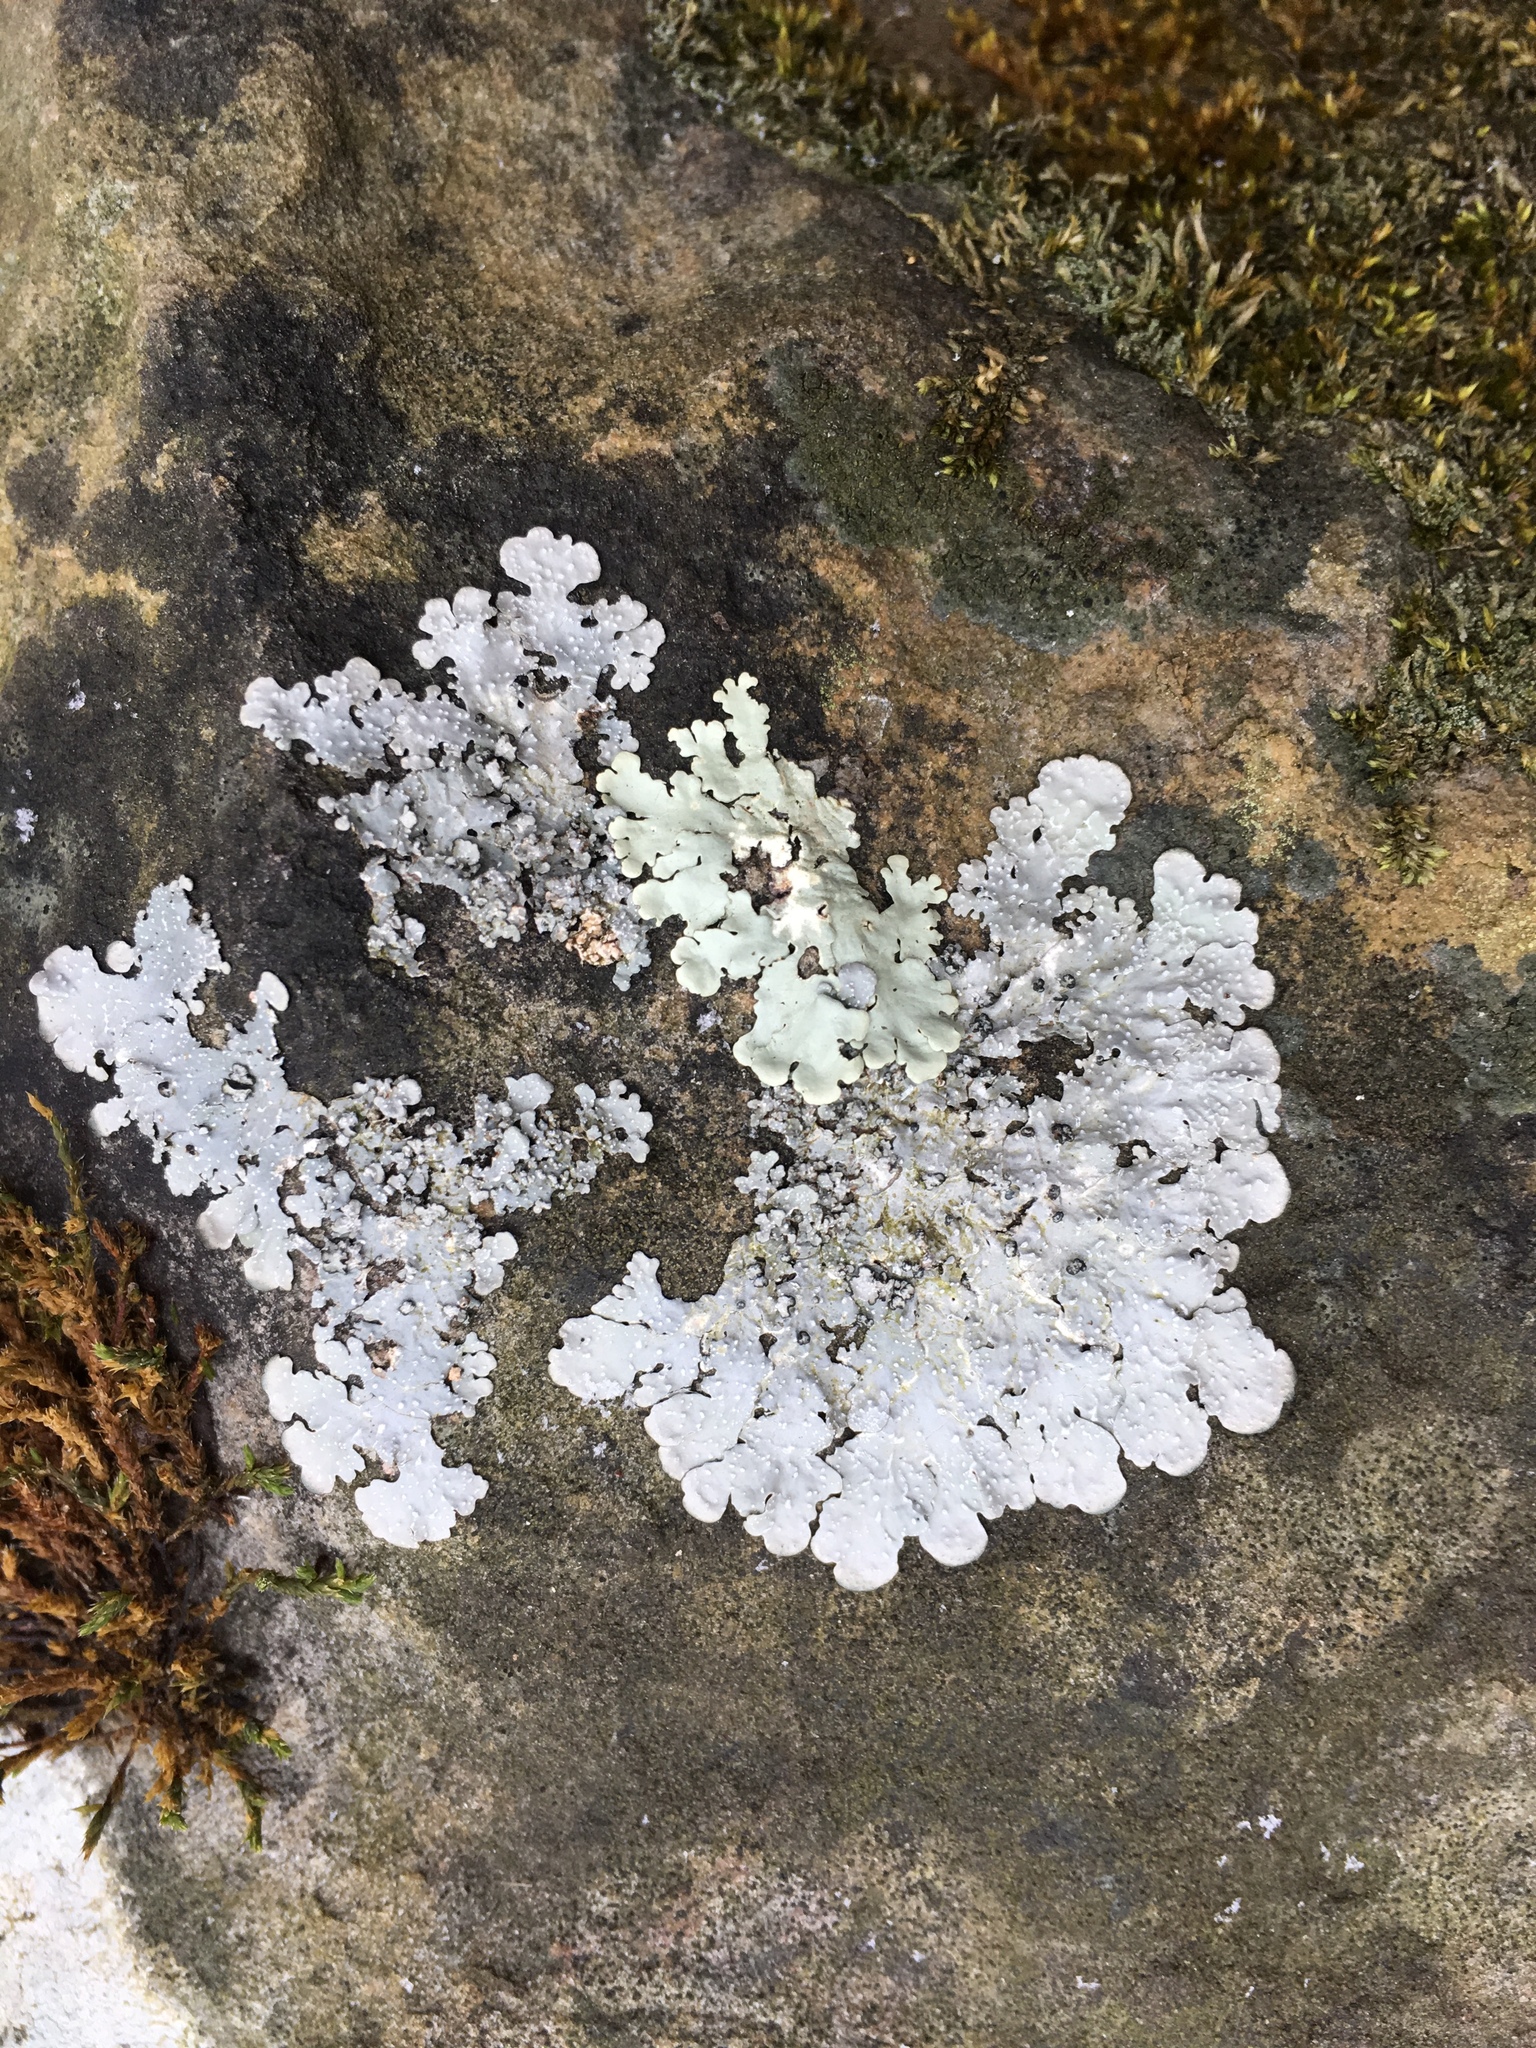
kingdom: Fungi
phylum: Ascomycota
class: Lecanoromycetes
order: Lecanorales
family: Parmeliaceae
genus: Flavoparmelia
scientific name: Flavoparmelia caperata
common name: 40-mile per hour lichen
